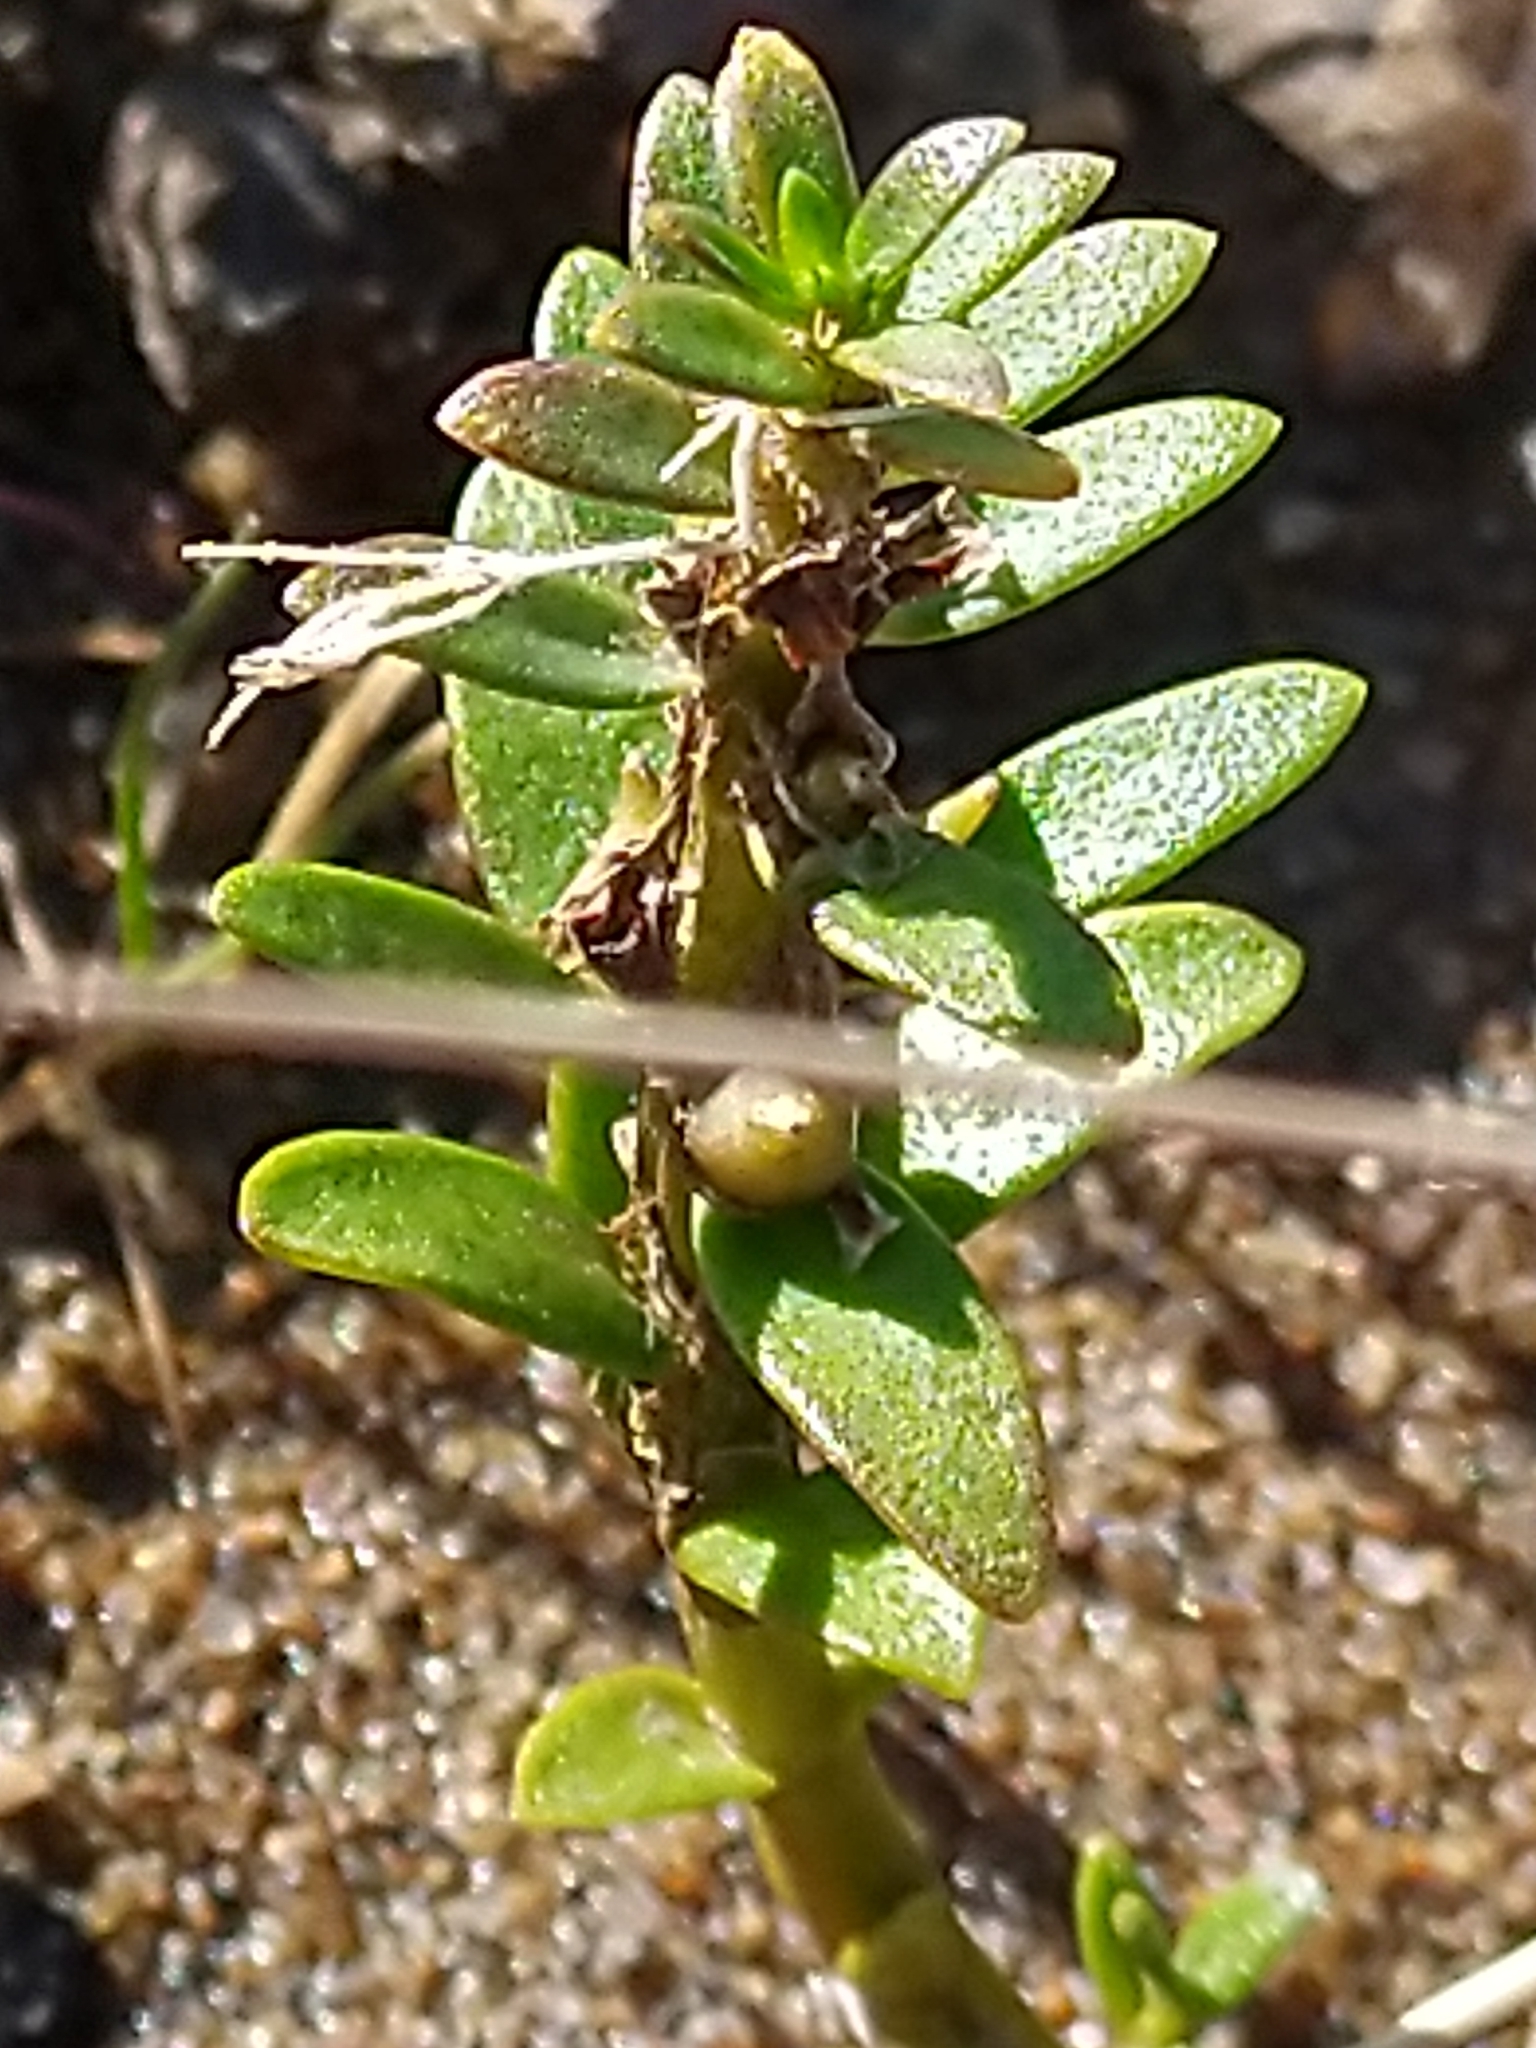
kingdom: Plantae
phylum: Tracheophyta
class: Magnoliopsida
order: Ericales
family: Primulaceae
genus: Lysimachia
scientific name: Lysimachia maritima
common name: Sea milkwort
